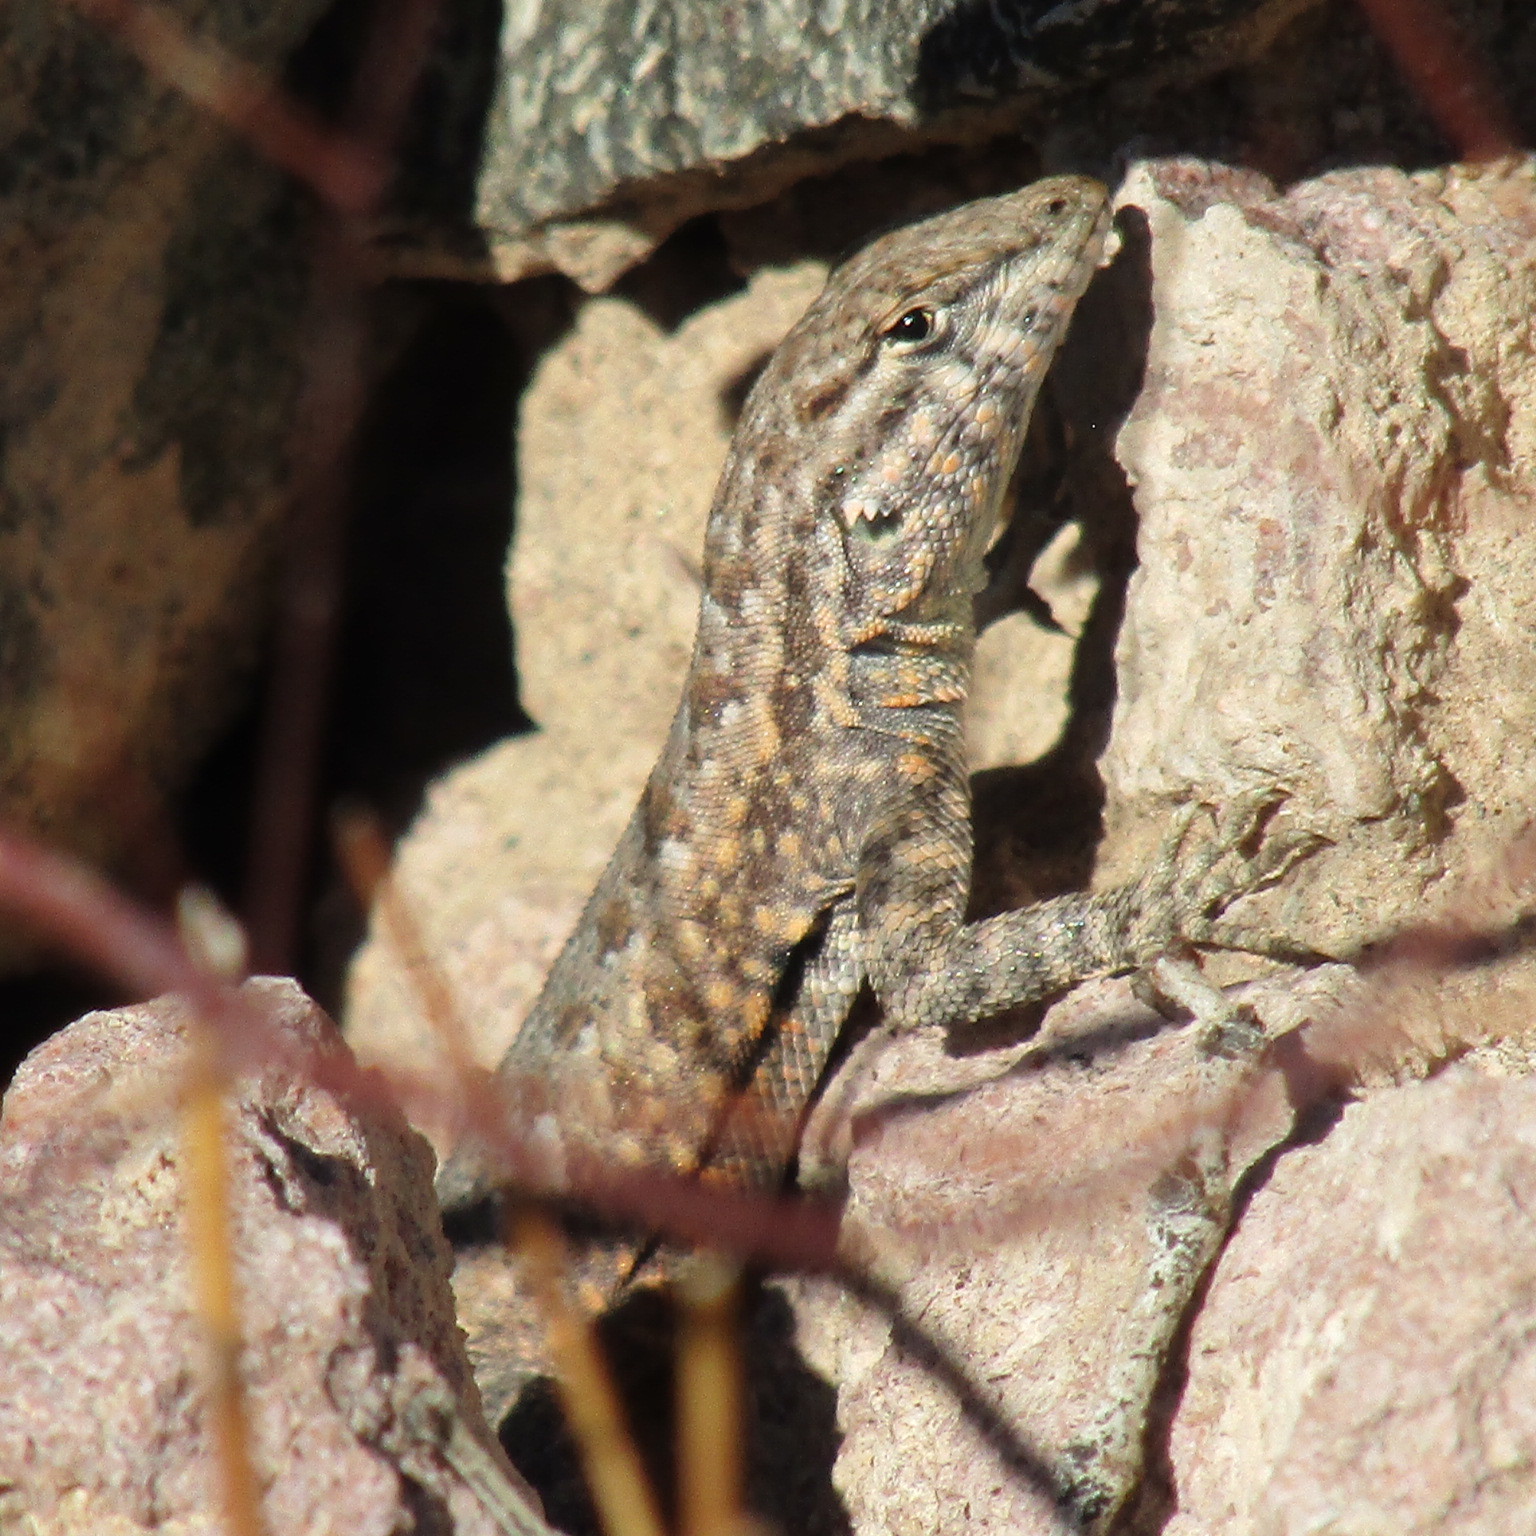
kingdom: Animalia
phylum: Chordata
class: Squamata
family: Phrynosomatidae
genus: Uta
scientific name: Uta stansburiana
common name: Side-blotched lizard
